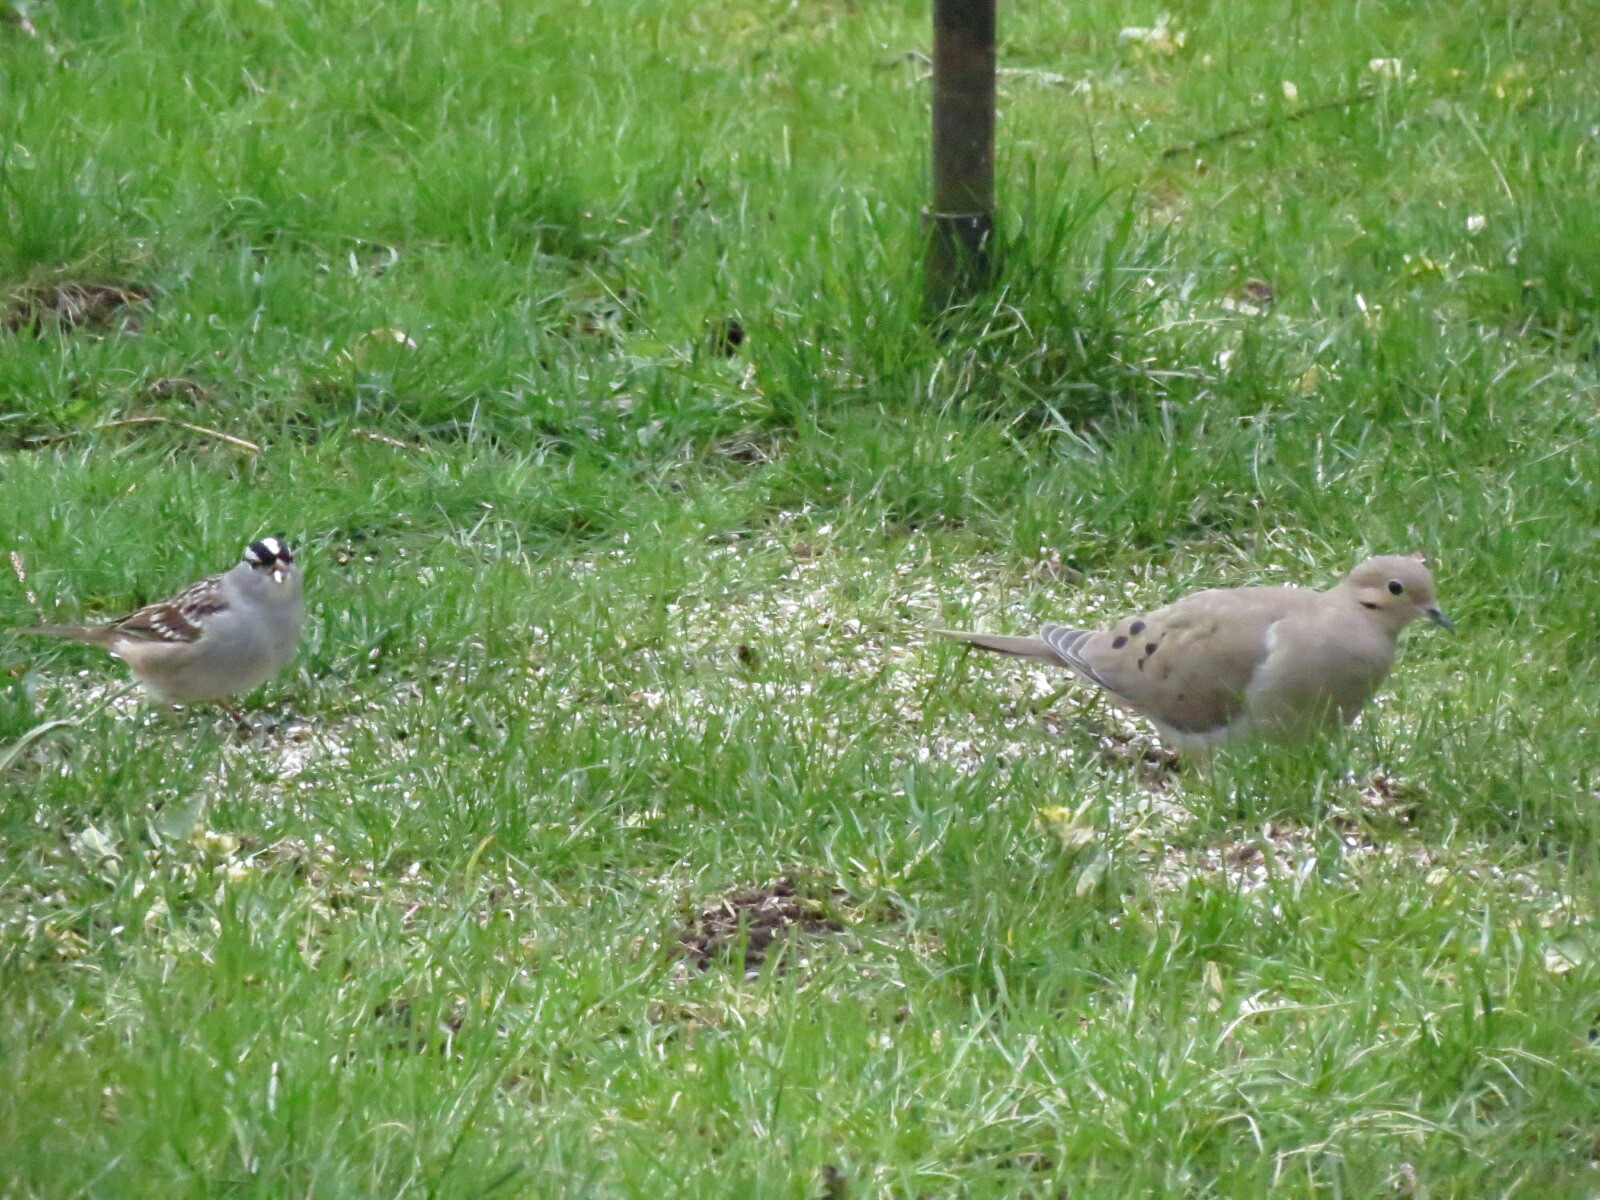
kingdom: Animalia
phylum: Chordata
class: Aves
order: Passeriformes
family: Passerellidae
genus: Zonotrichia
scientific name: Zonotrichia leucophrys
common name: White-crowned sparrow
